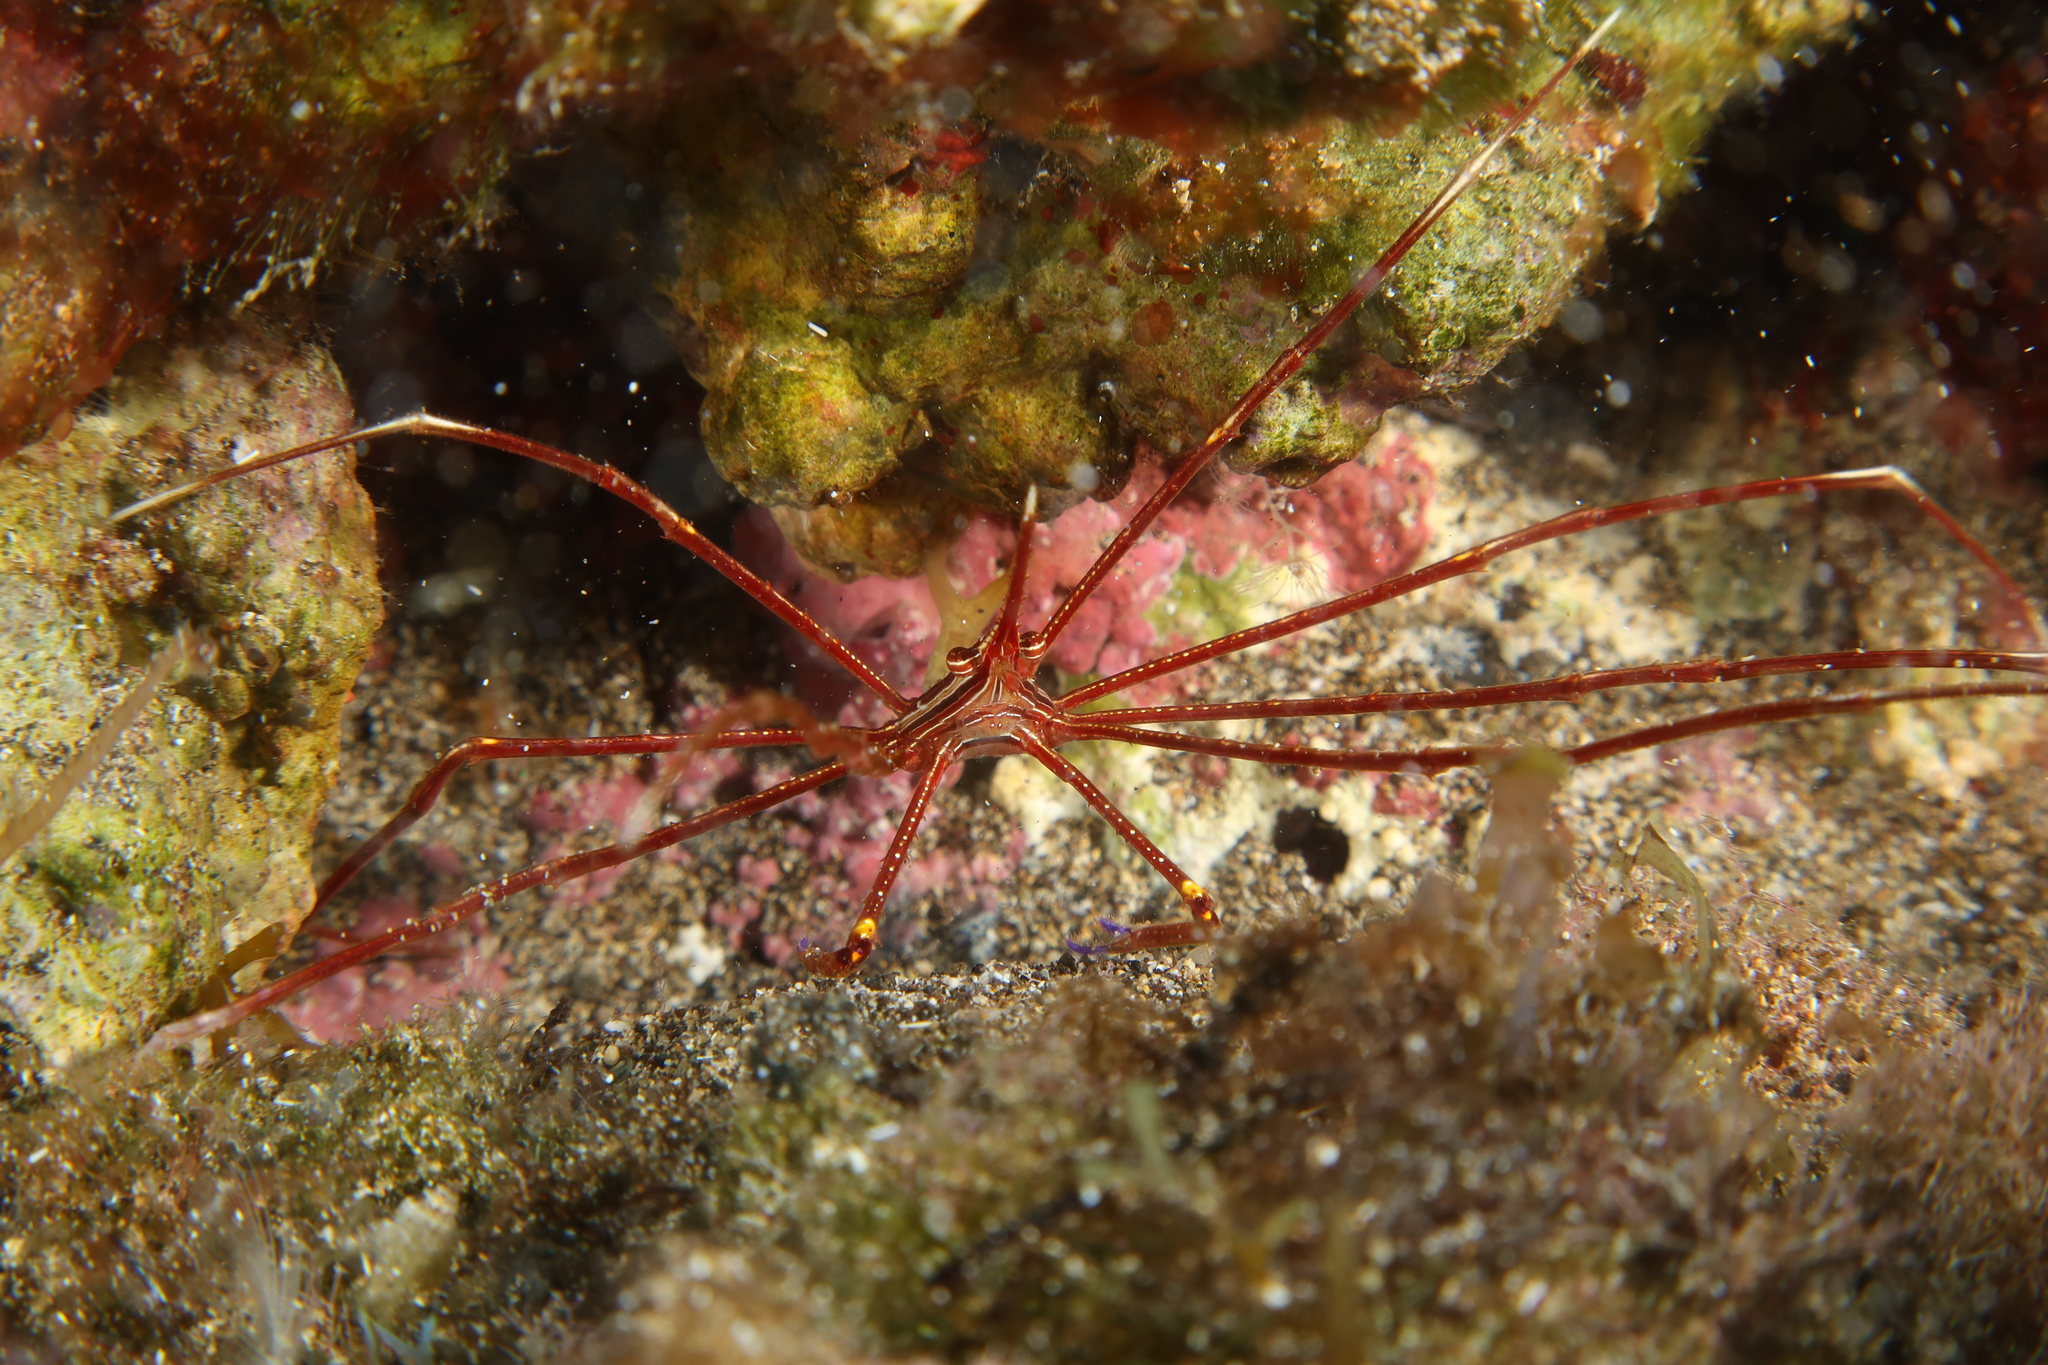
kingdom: Animalia
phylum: Arthropoda
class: Malacostraca
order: Decapoda
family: Inachoididae
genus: Stenorhynchus
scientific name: Stenorhynchus lanceolatus
